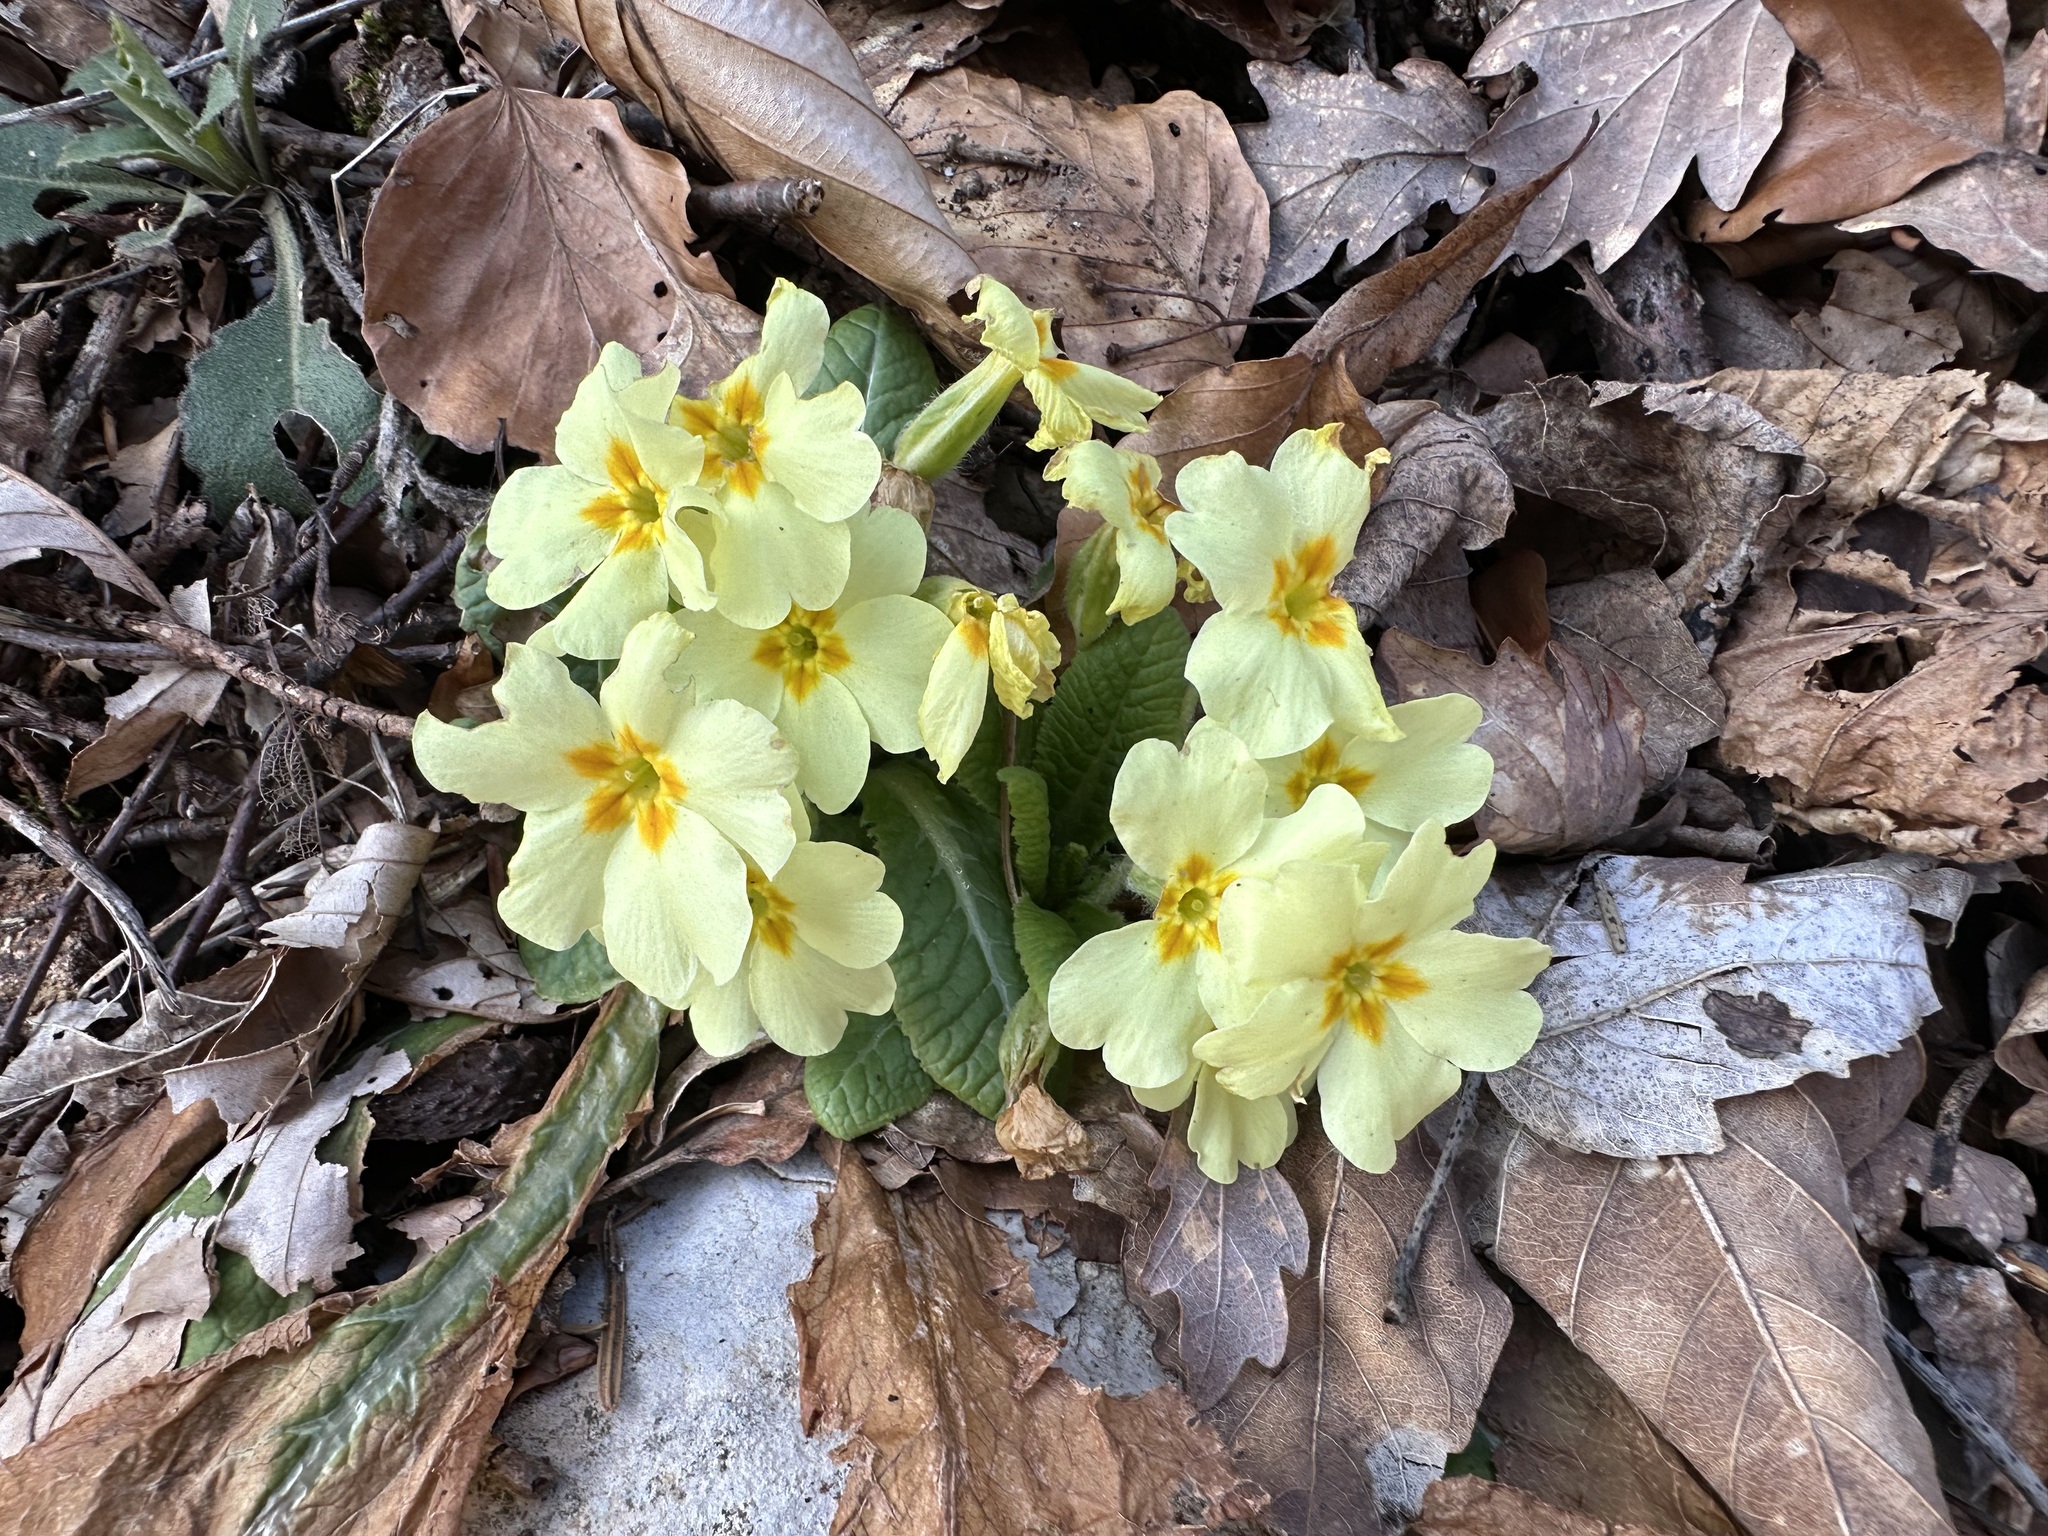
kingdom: Plantae
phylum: Tracheophyta
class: Magnoliopsida
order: Ericales
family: Primulaceae
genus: Primula
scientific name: Primula vulgaris
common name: Primrose
